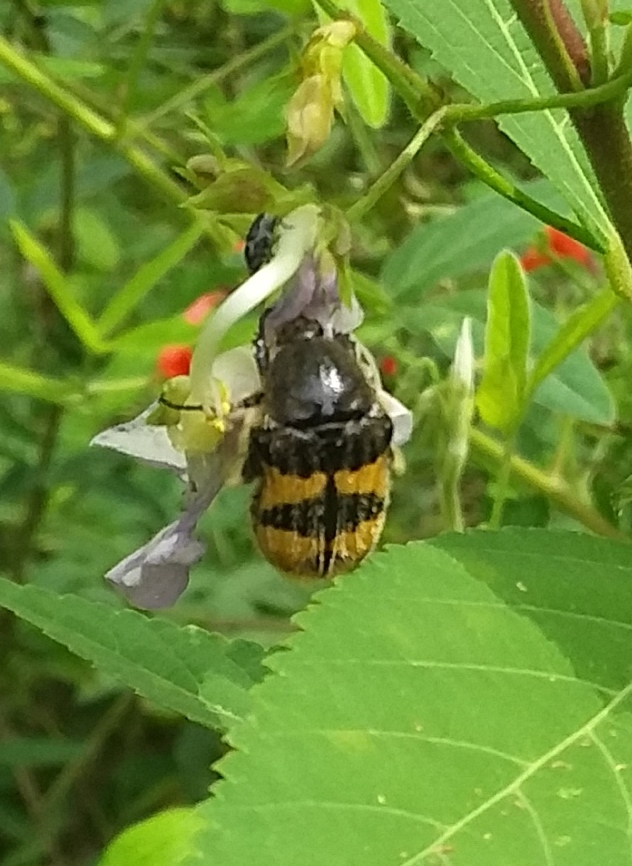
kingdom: Animalia
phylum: Arthropoda
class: Insecta
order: Coleoptera
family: Scarabaeidae
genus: Euphoria
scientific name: Euphoria basalis
